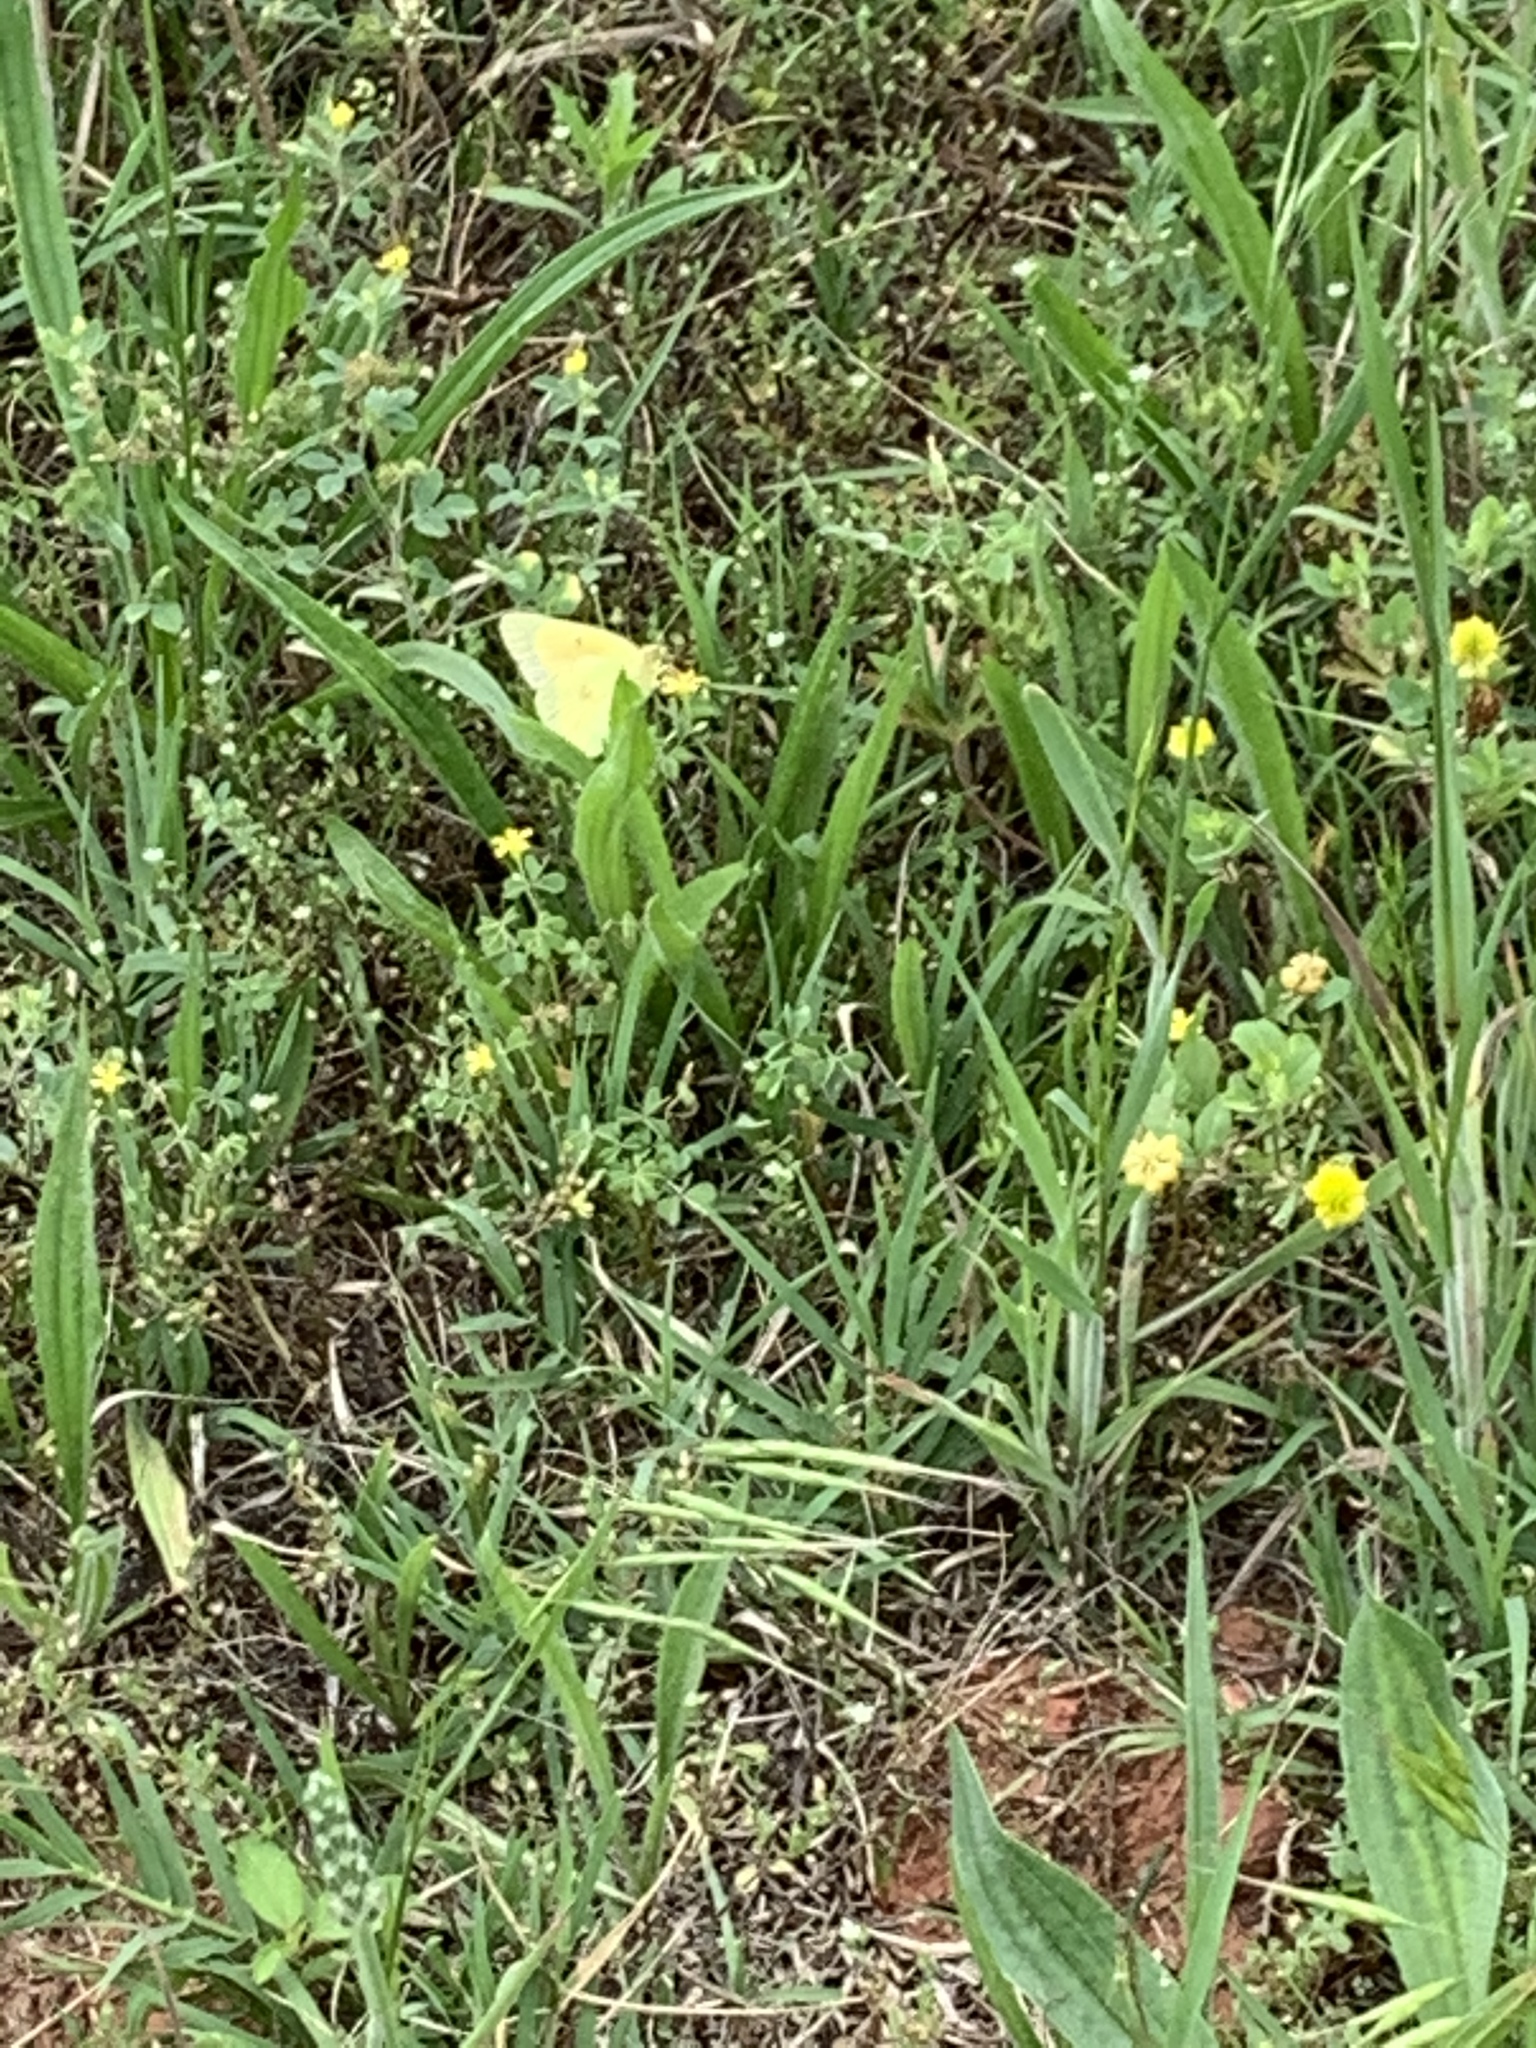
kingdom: Animalia
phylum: Arthropoda
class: Insecta
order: Lepidoptera
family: Pieridae
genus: Colias
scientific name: Colias eurytheme
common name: Alfalfa butterfly
